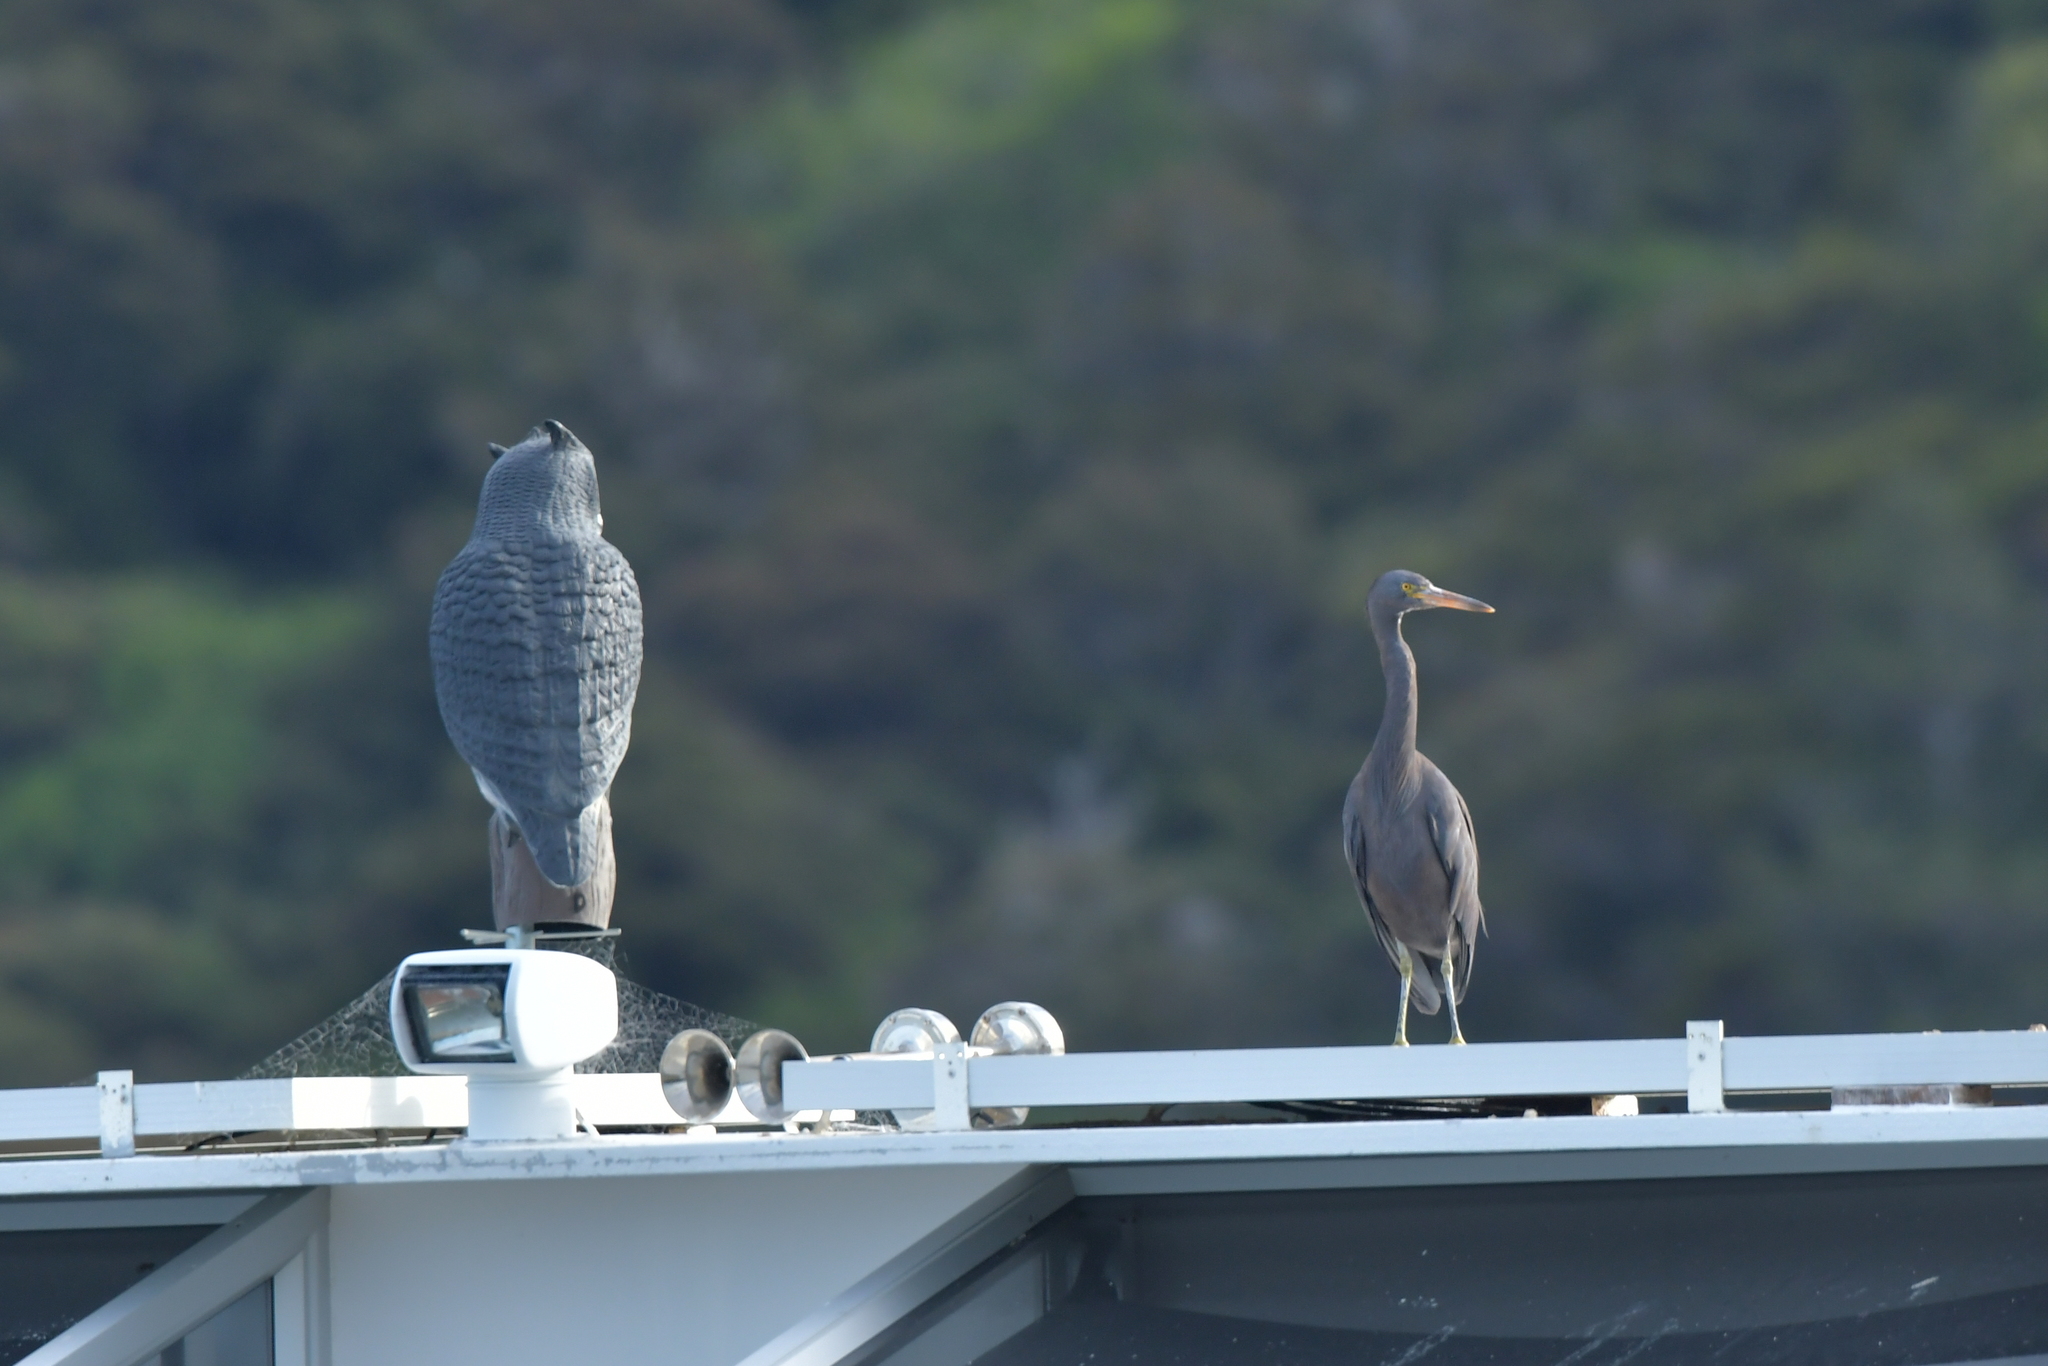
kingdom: Animalia
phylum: Chordata
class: Aves
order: Pelecaniformes
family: Ardeidae
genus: Egretta
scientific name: Egretta sacra
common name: Pacific reef heron
